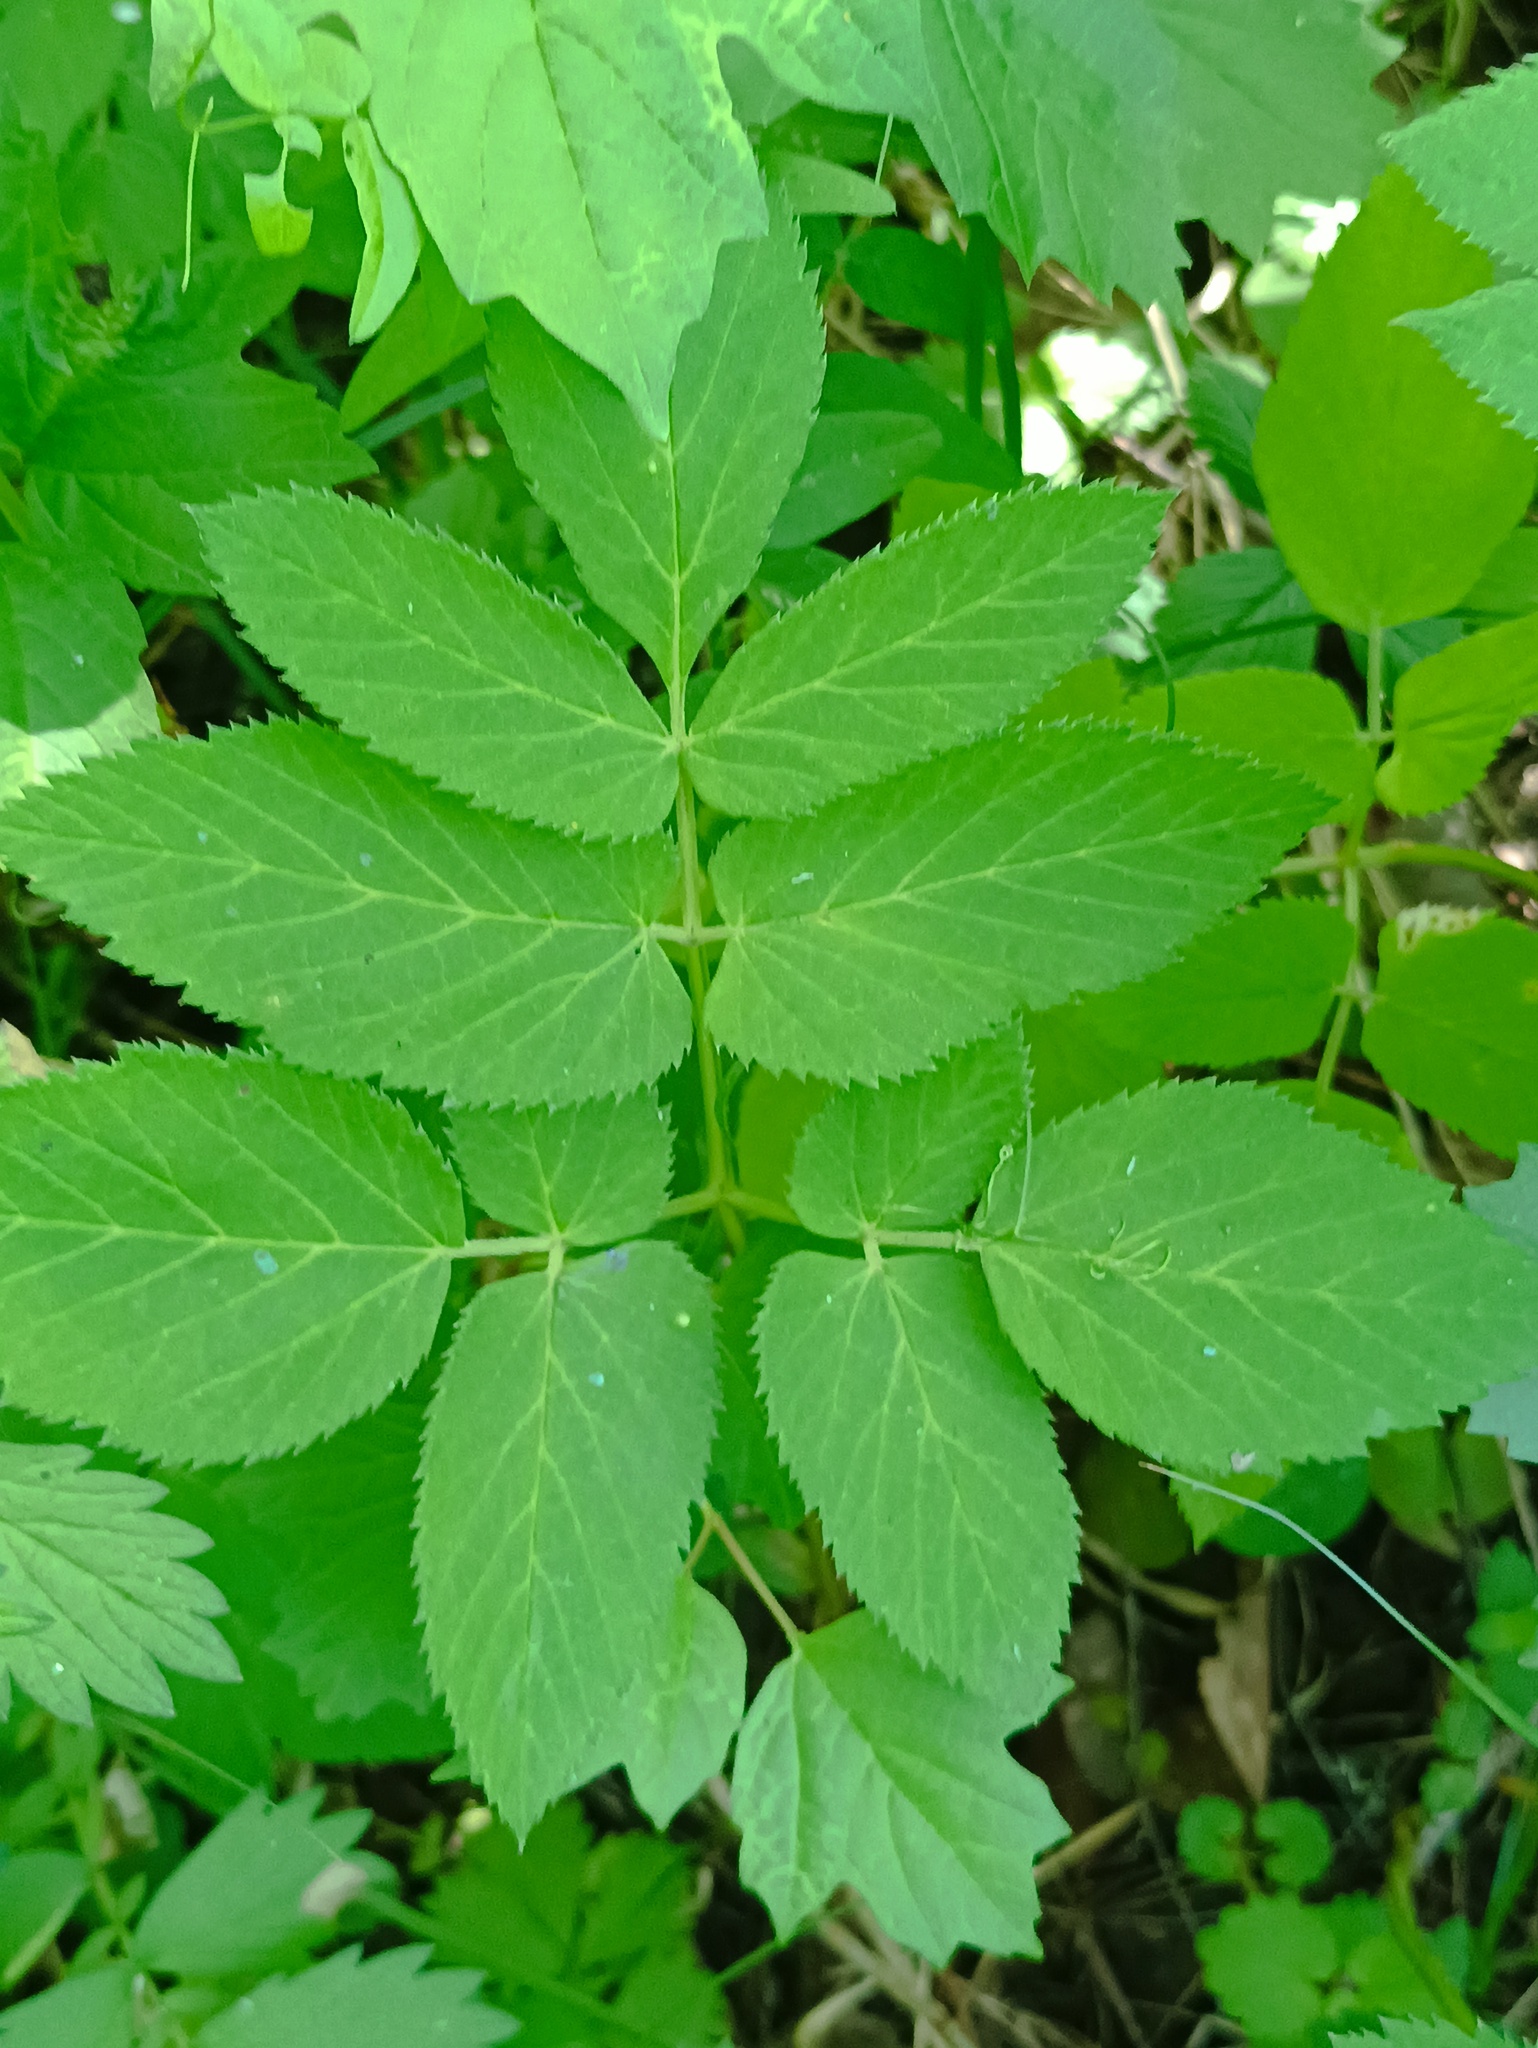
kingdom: Plantae
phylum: Tracheophyta
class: Magnoliopsida
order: Apiales
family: Apiaceae
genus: Aegopodium
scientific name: Aegopodium podagraria
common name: Ground-elder
